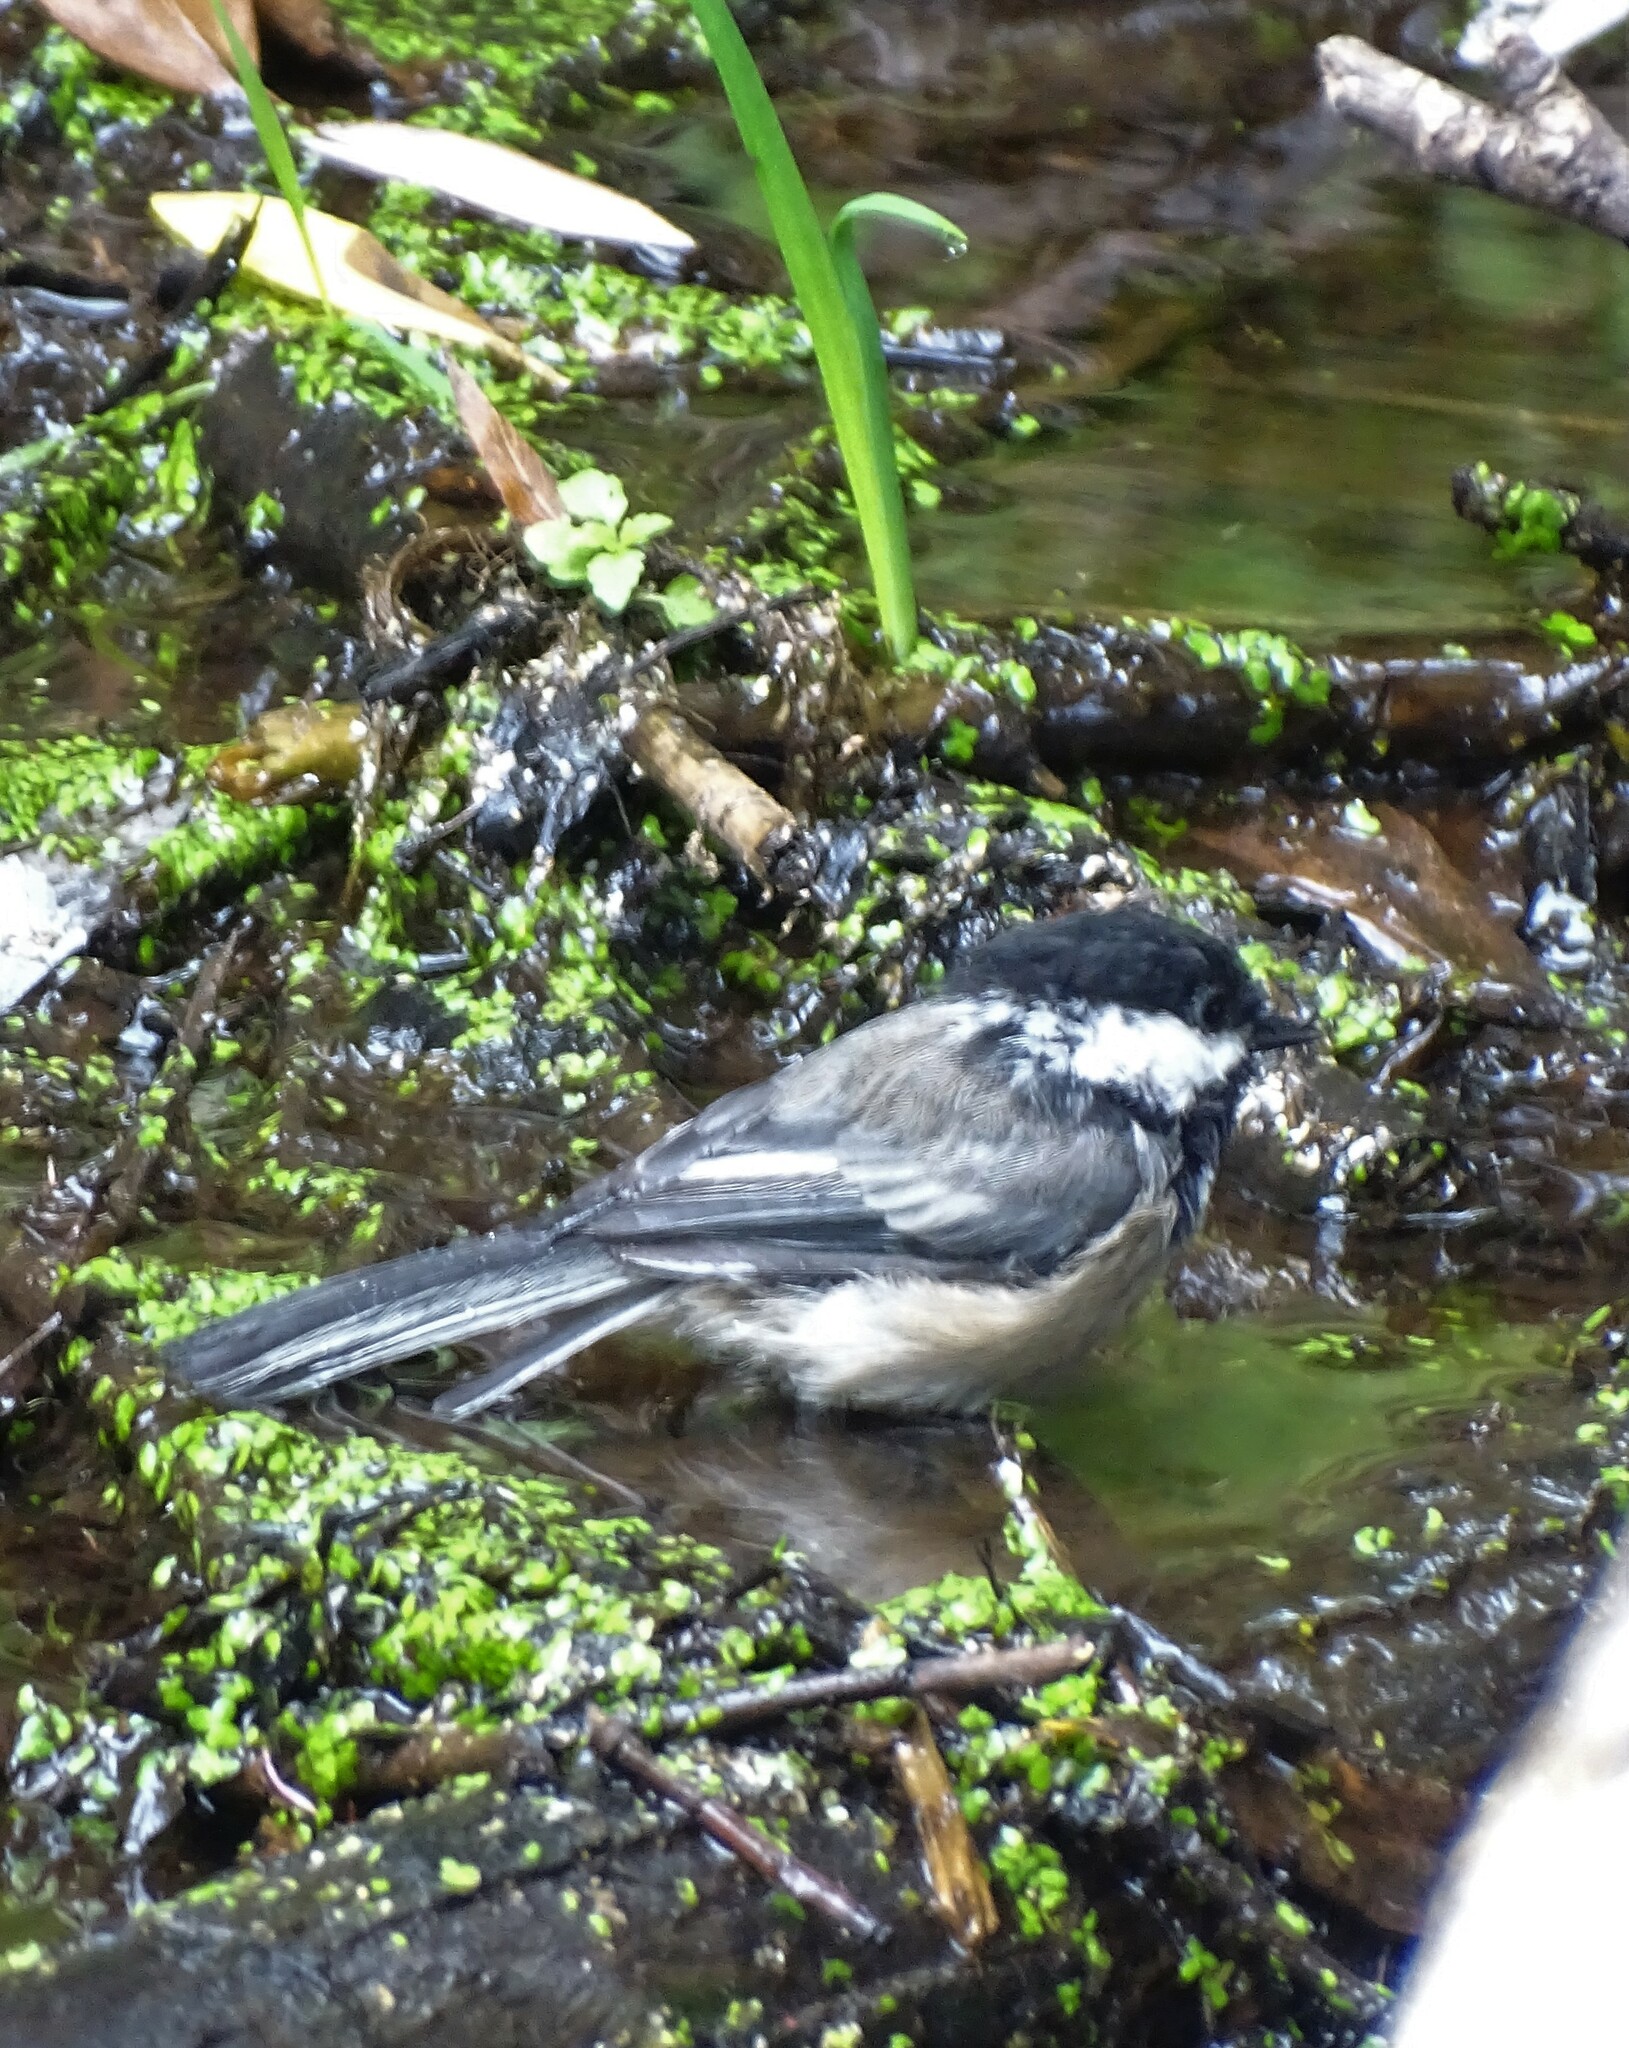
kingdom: Animalia
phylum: Chordata
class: Aves
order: Passeriformes
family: Paridae
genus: Poecile
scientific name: Poecile atricapillus
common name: Black-capped chickadee
